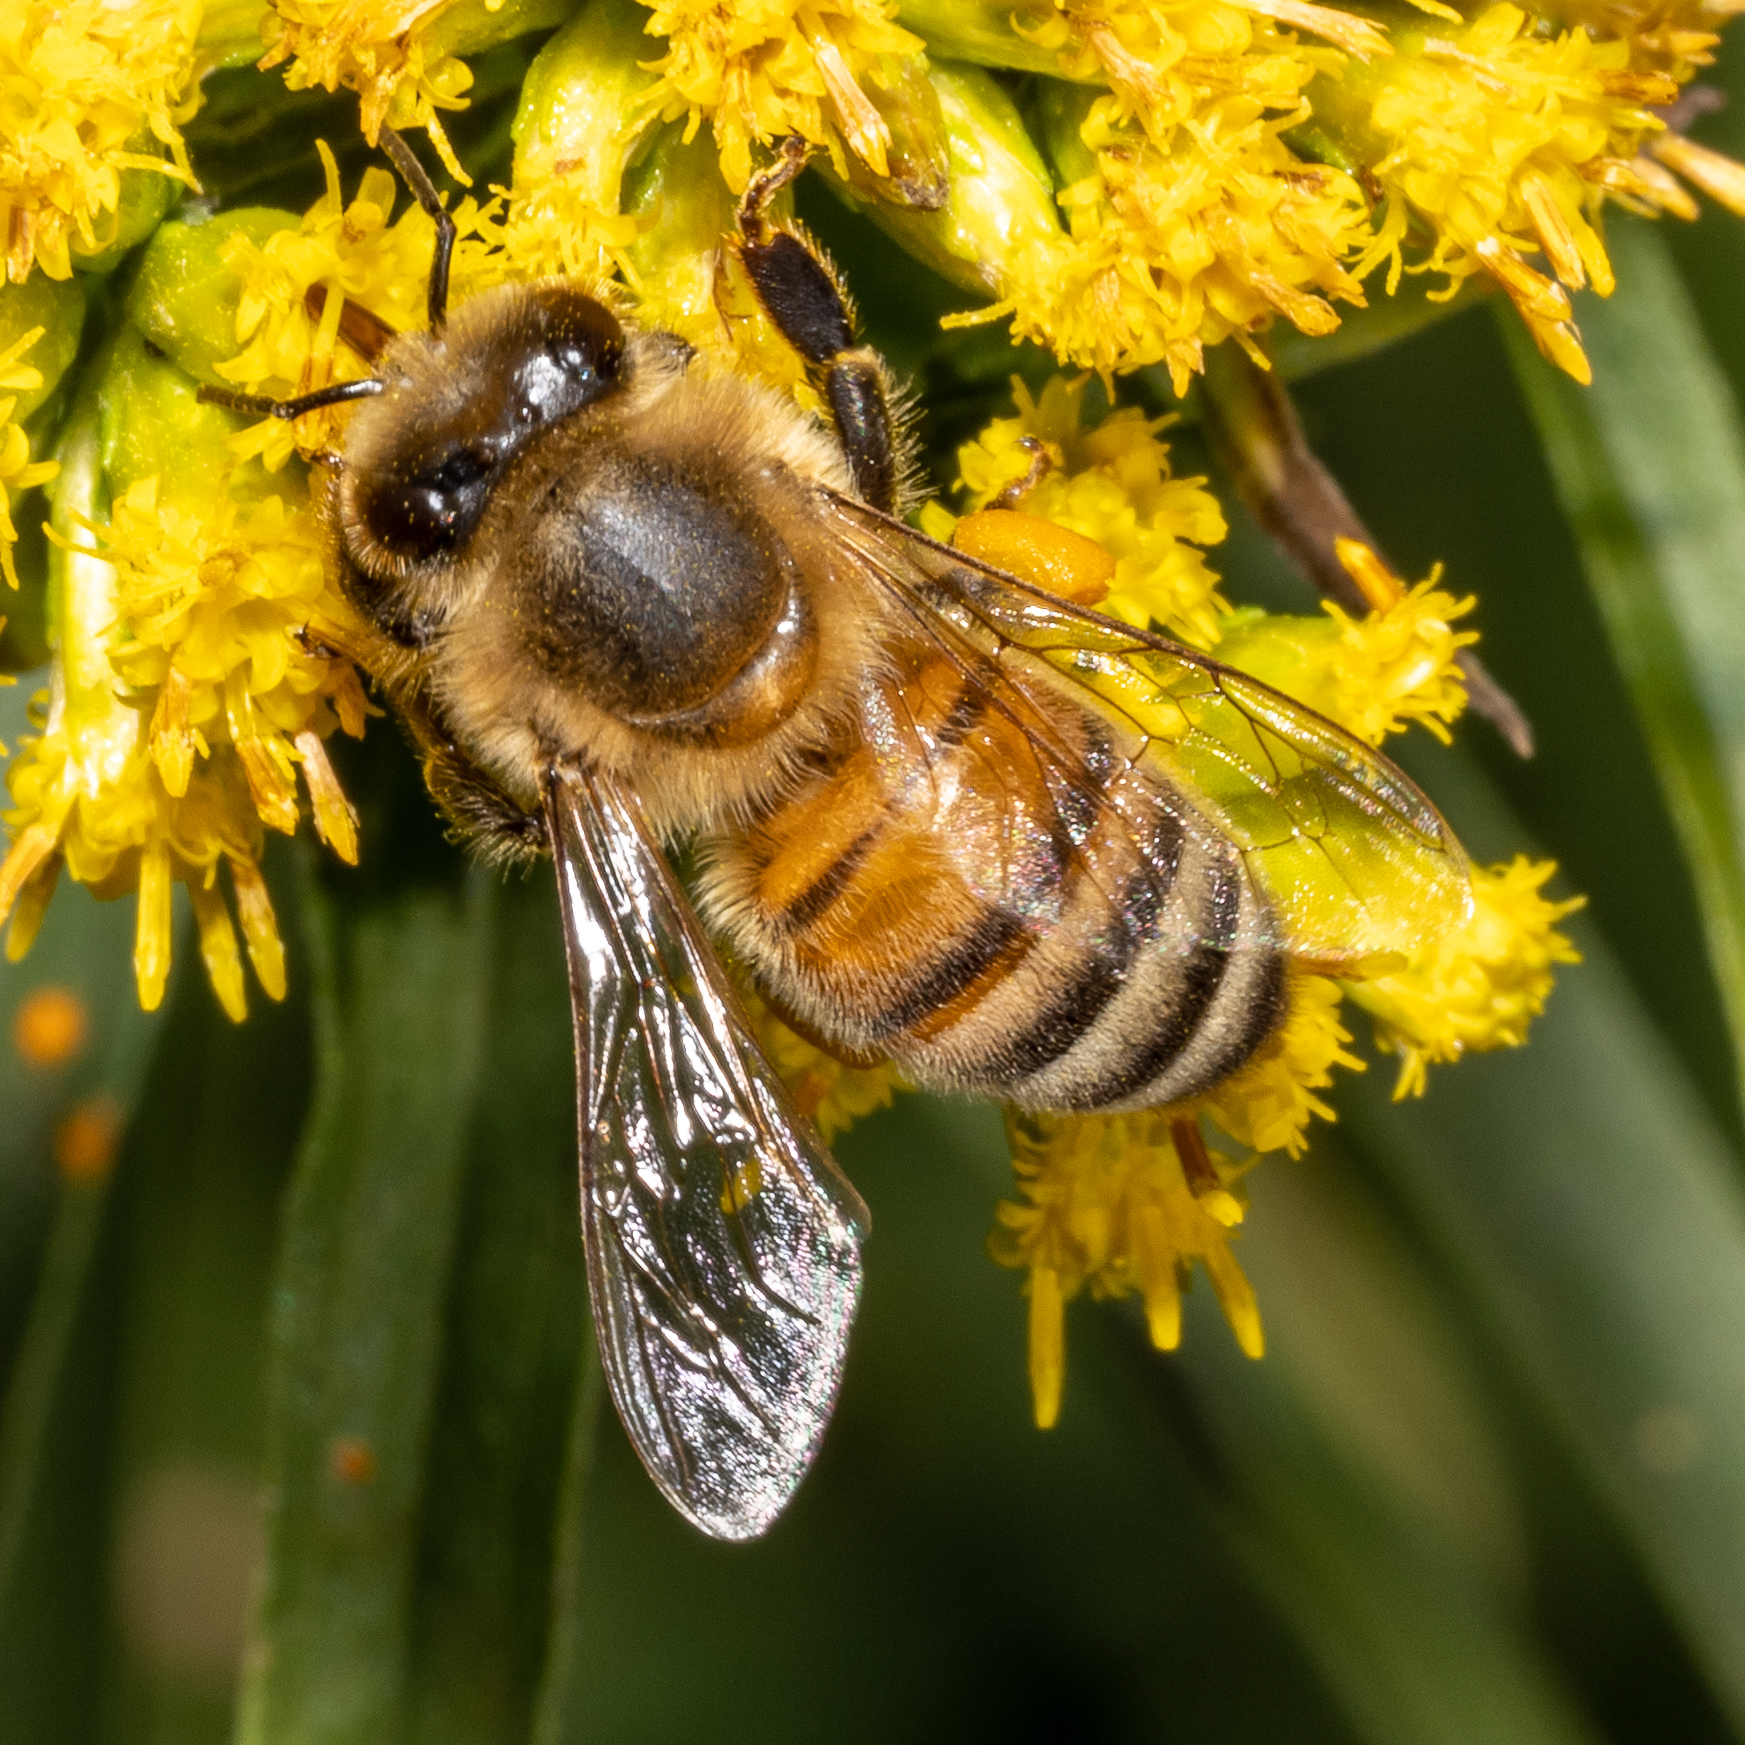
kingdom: Animalia
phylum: Arthropoda
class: Insecta
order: Hymenoptera
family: Apidae
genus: Apis
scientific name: Apis mellifera
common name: Honey bee
